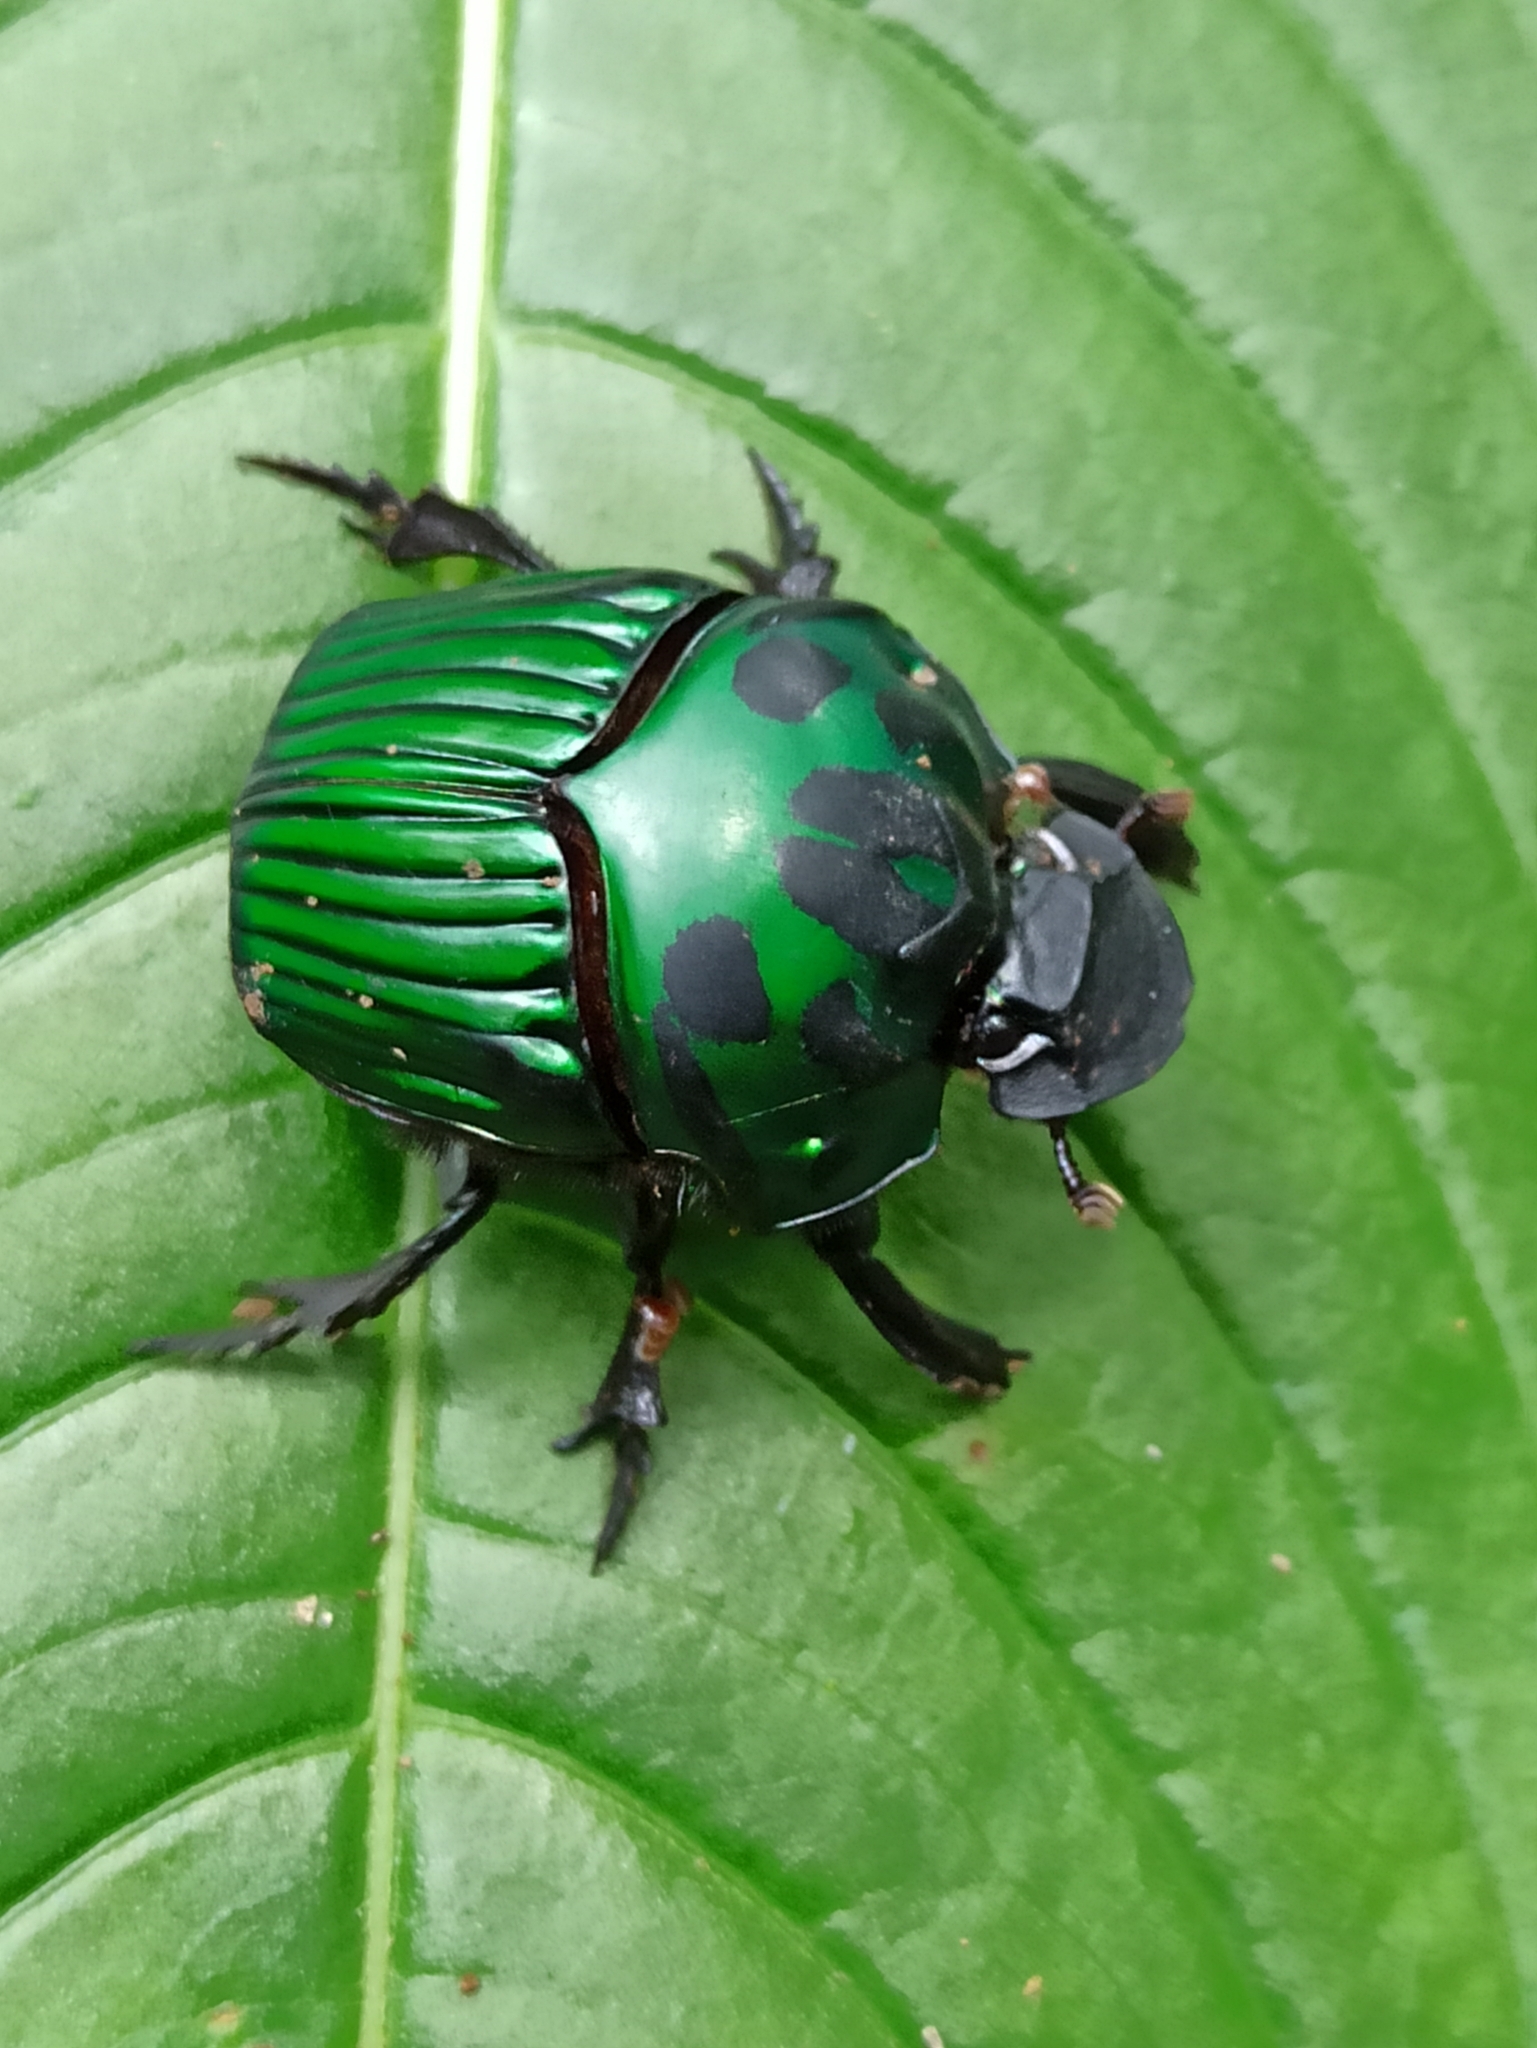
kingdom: Animalia
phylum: Arthropoda
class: Insecta
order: Coleoptera
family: Scarabaeidae
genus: Oxysternon
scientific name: Oxysternon conspicillatum
